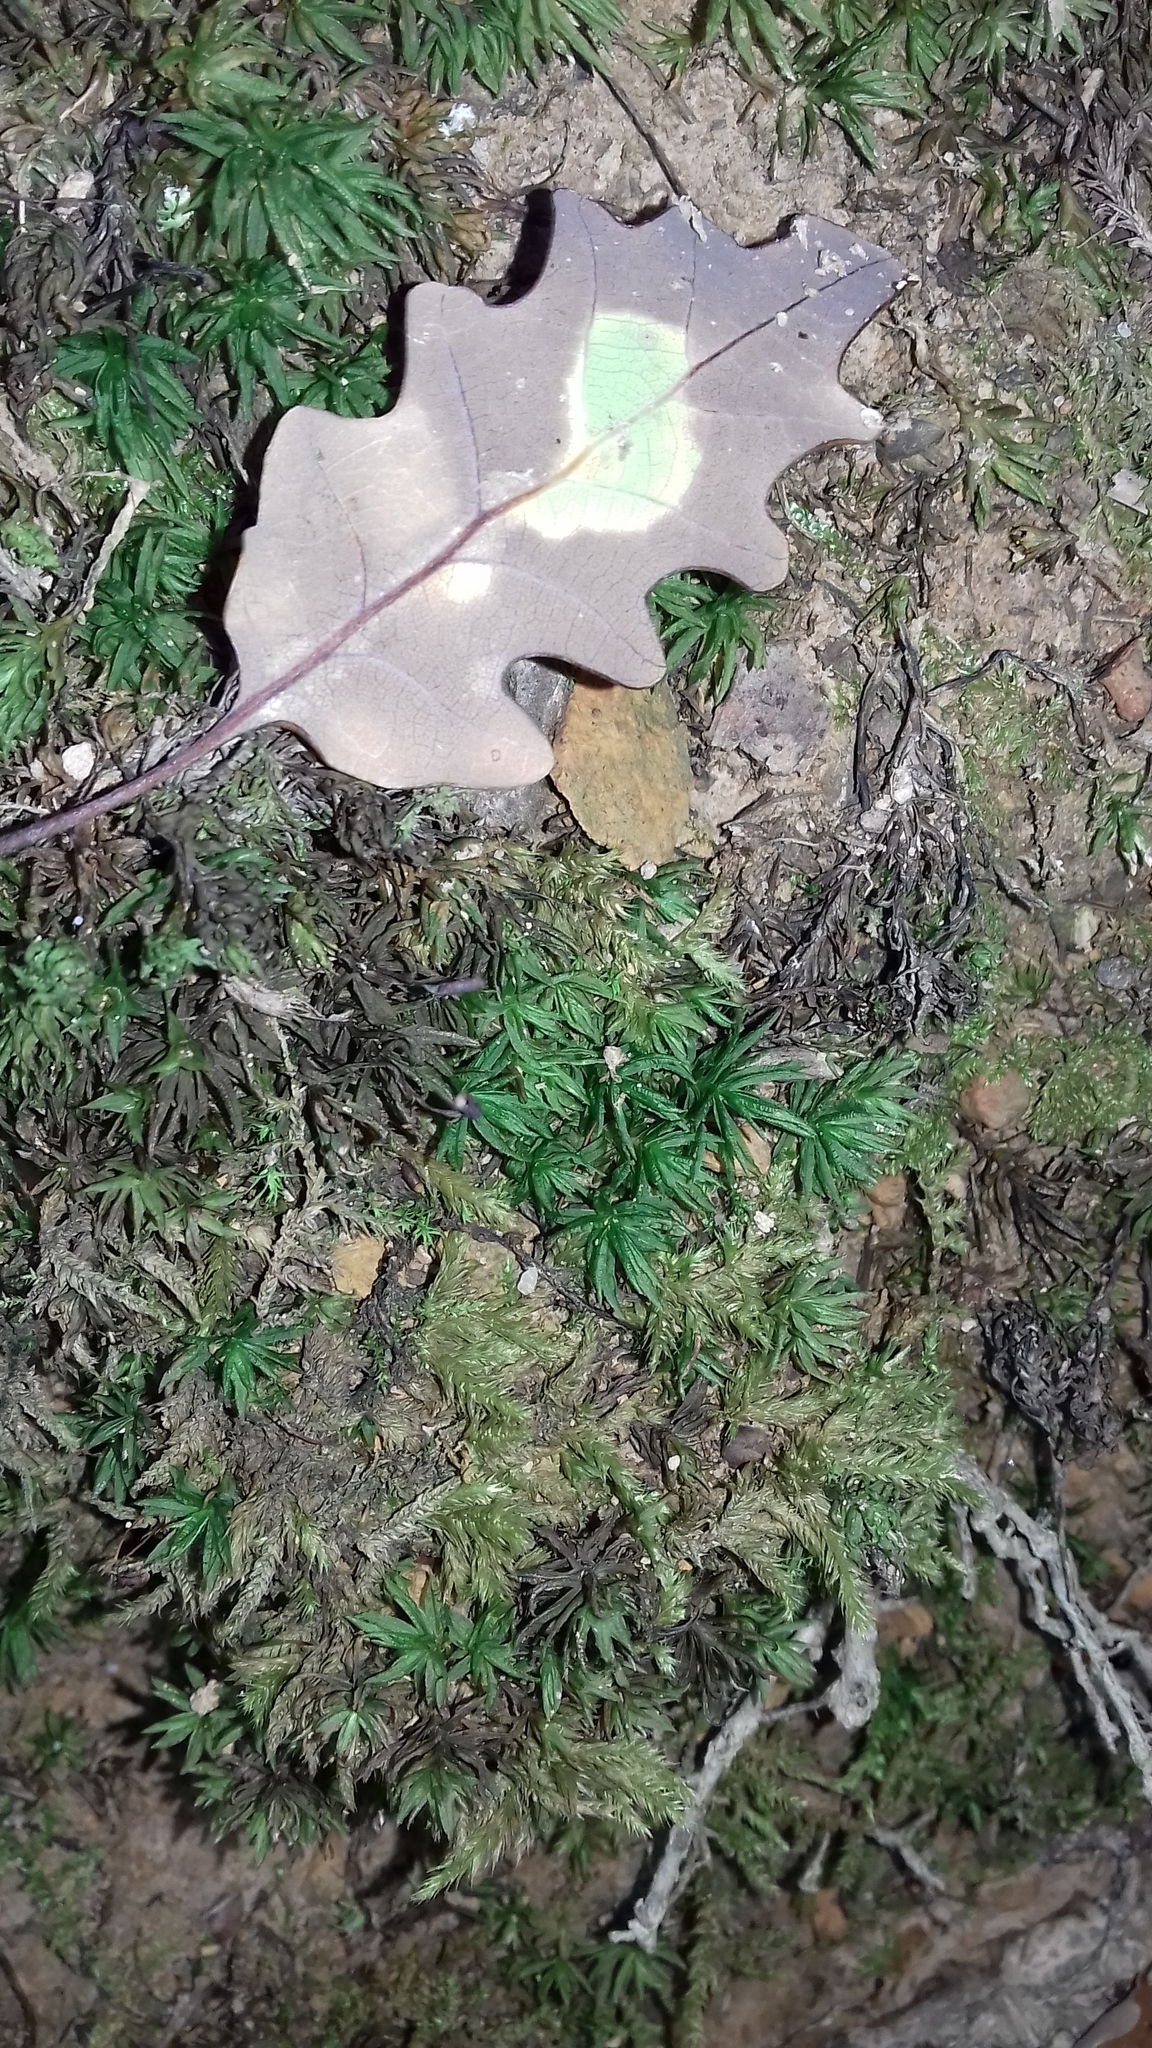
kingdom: Plantae
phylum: Bryophyta
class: Polytrichopsida
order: Polytrichales
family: Polytrichaceae
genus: Atrichum
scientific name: Atrichum undulatum
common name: Common smoothcap
